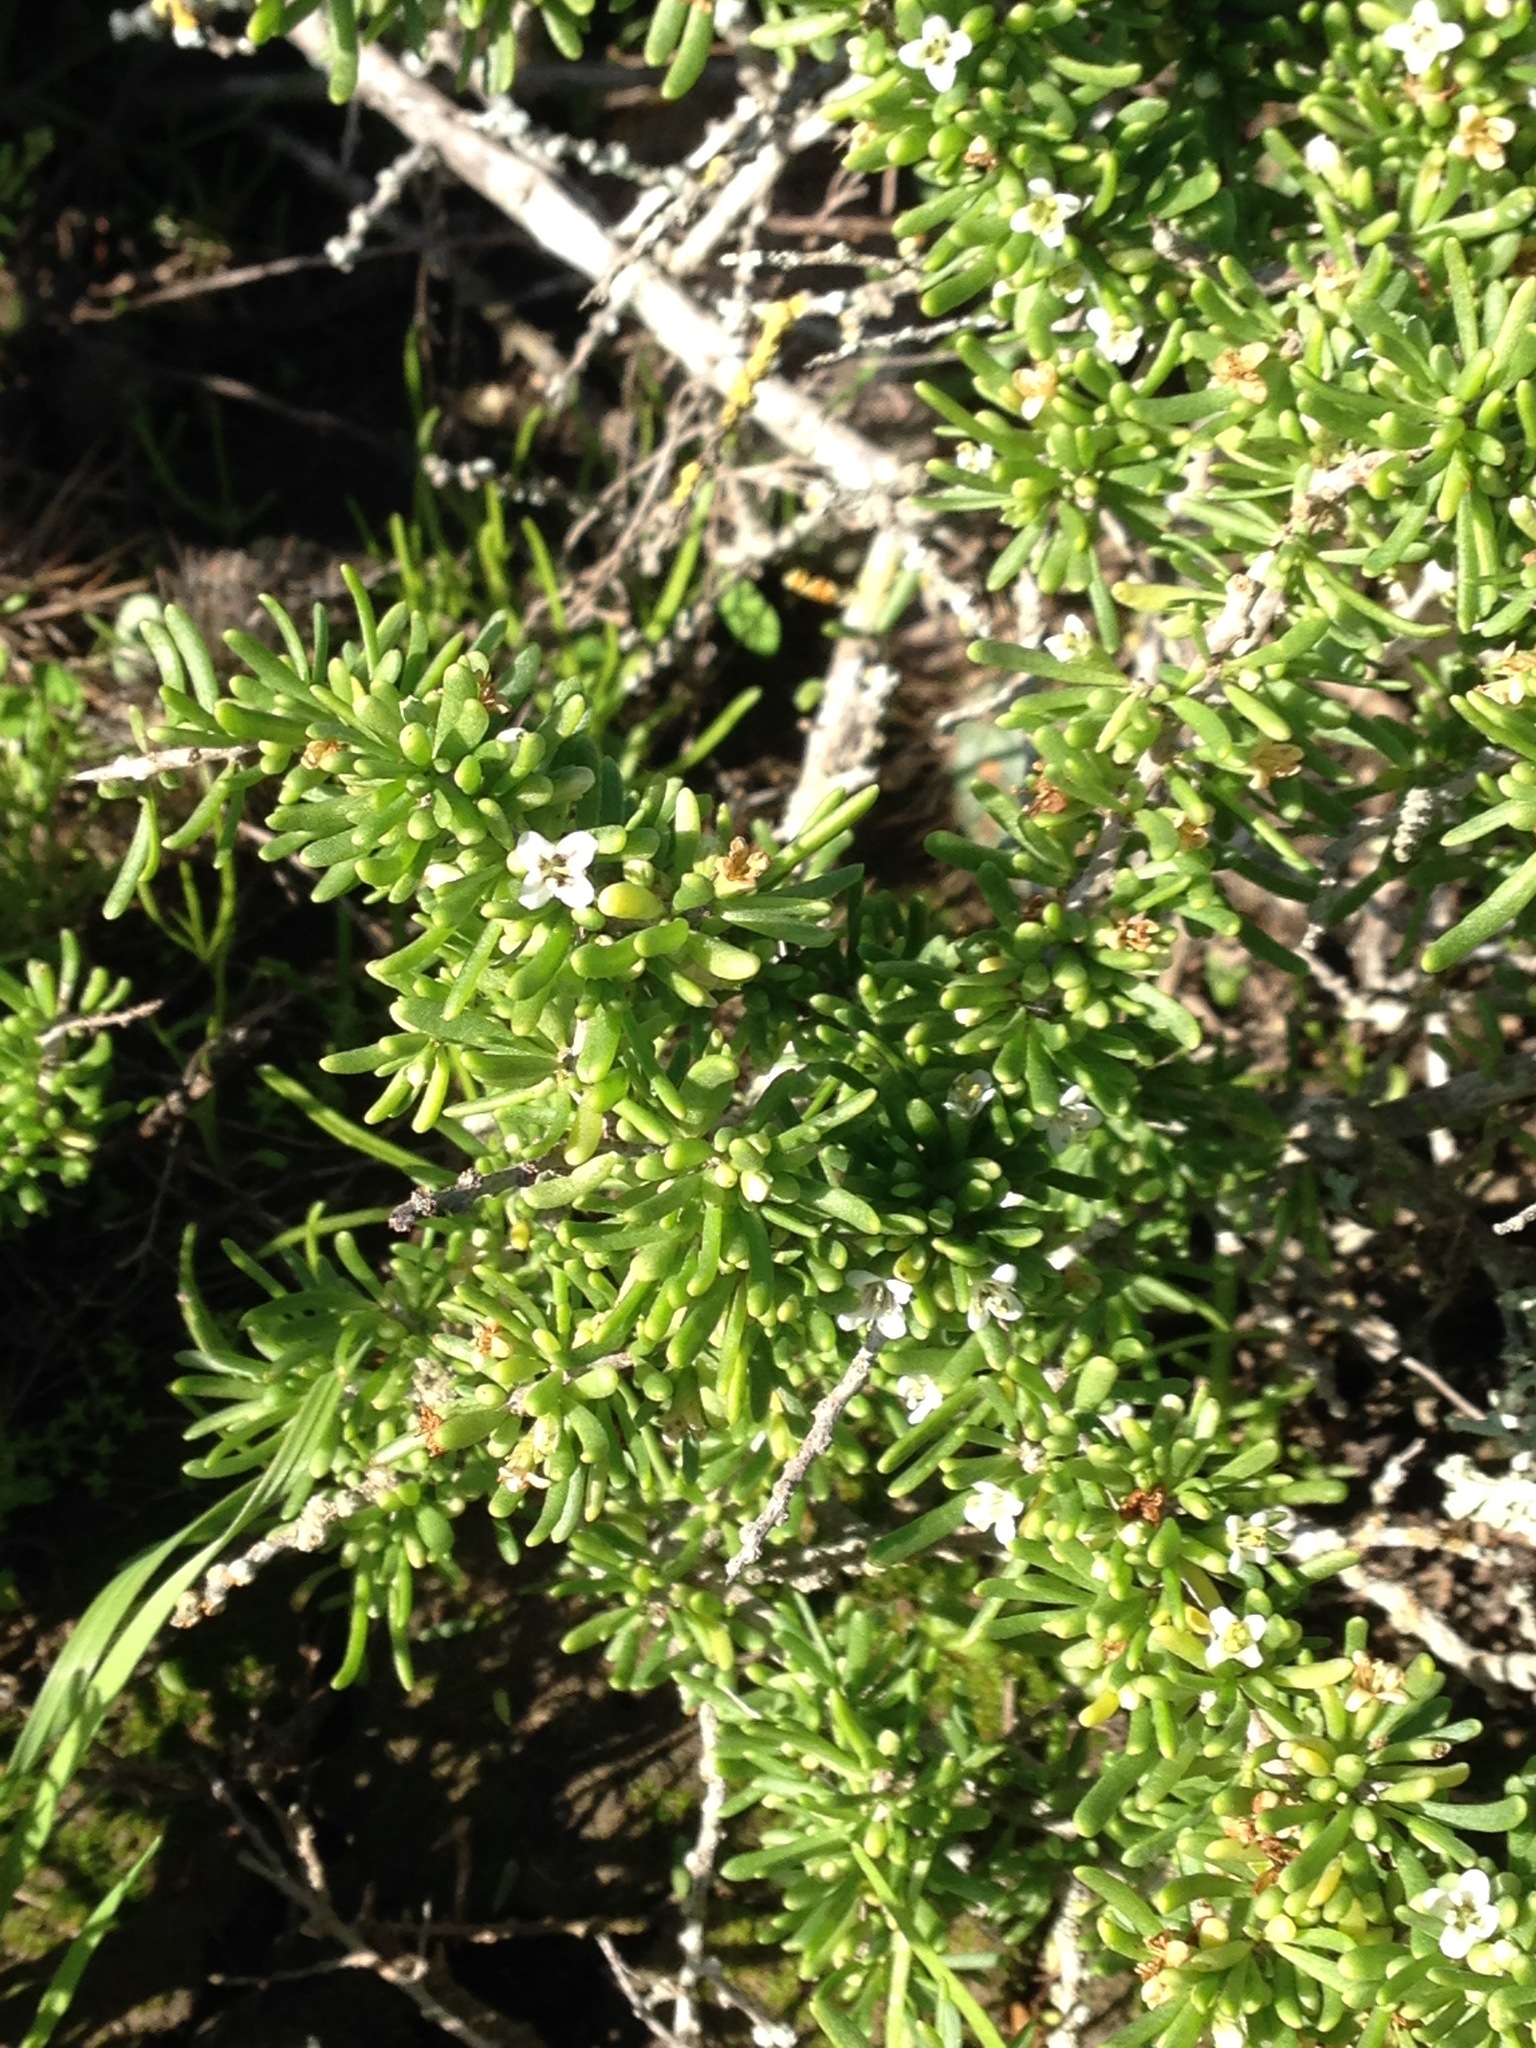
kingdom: Plantae
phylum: Tracheophyta
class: Magnoliopsida
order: Solanales
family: Solanaceae
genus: Lycium
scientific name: Lycium californicum
